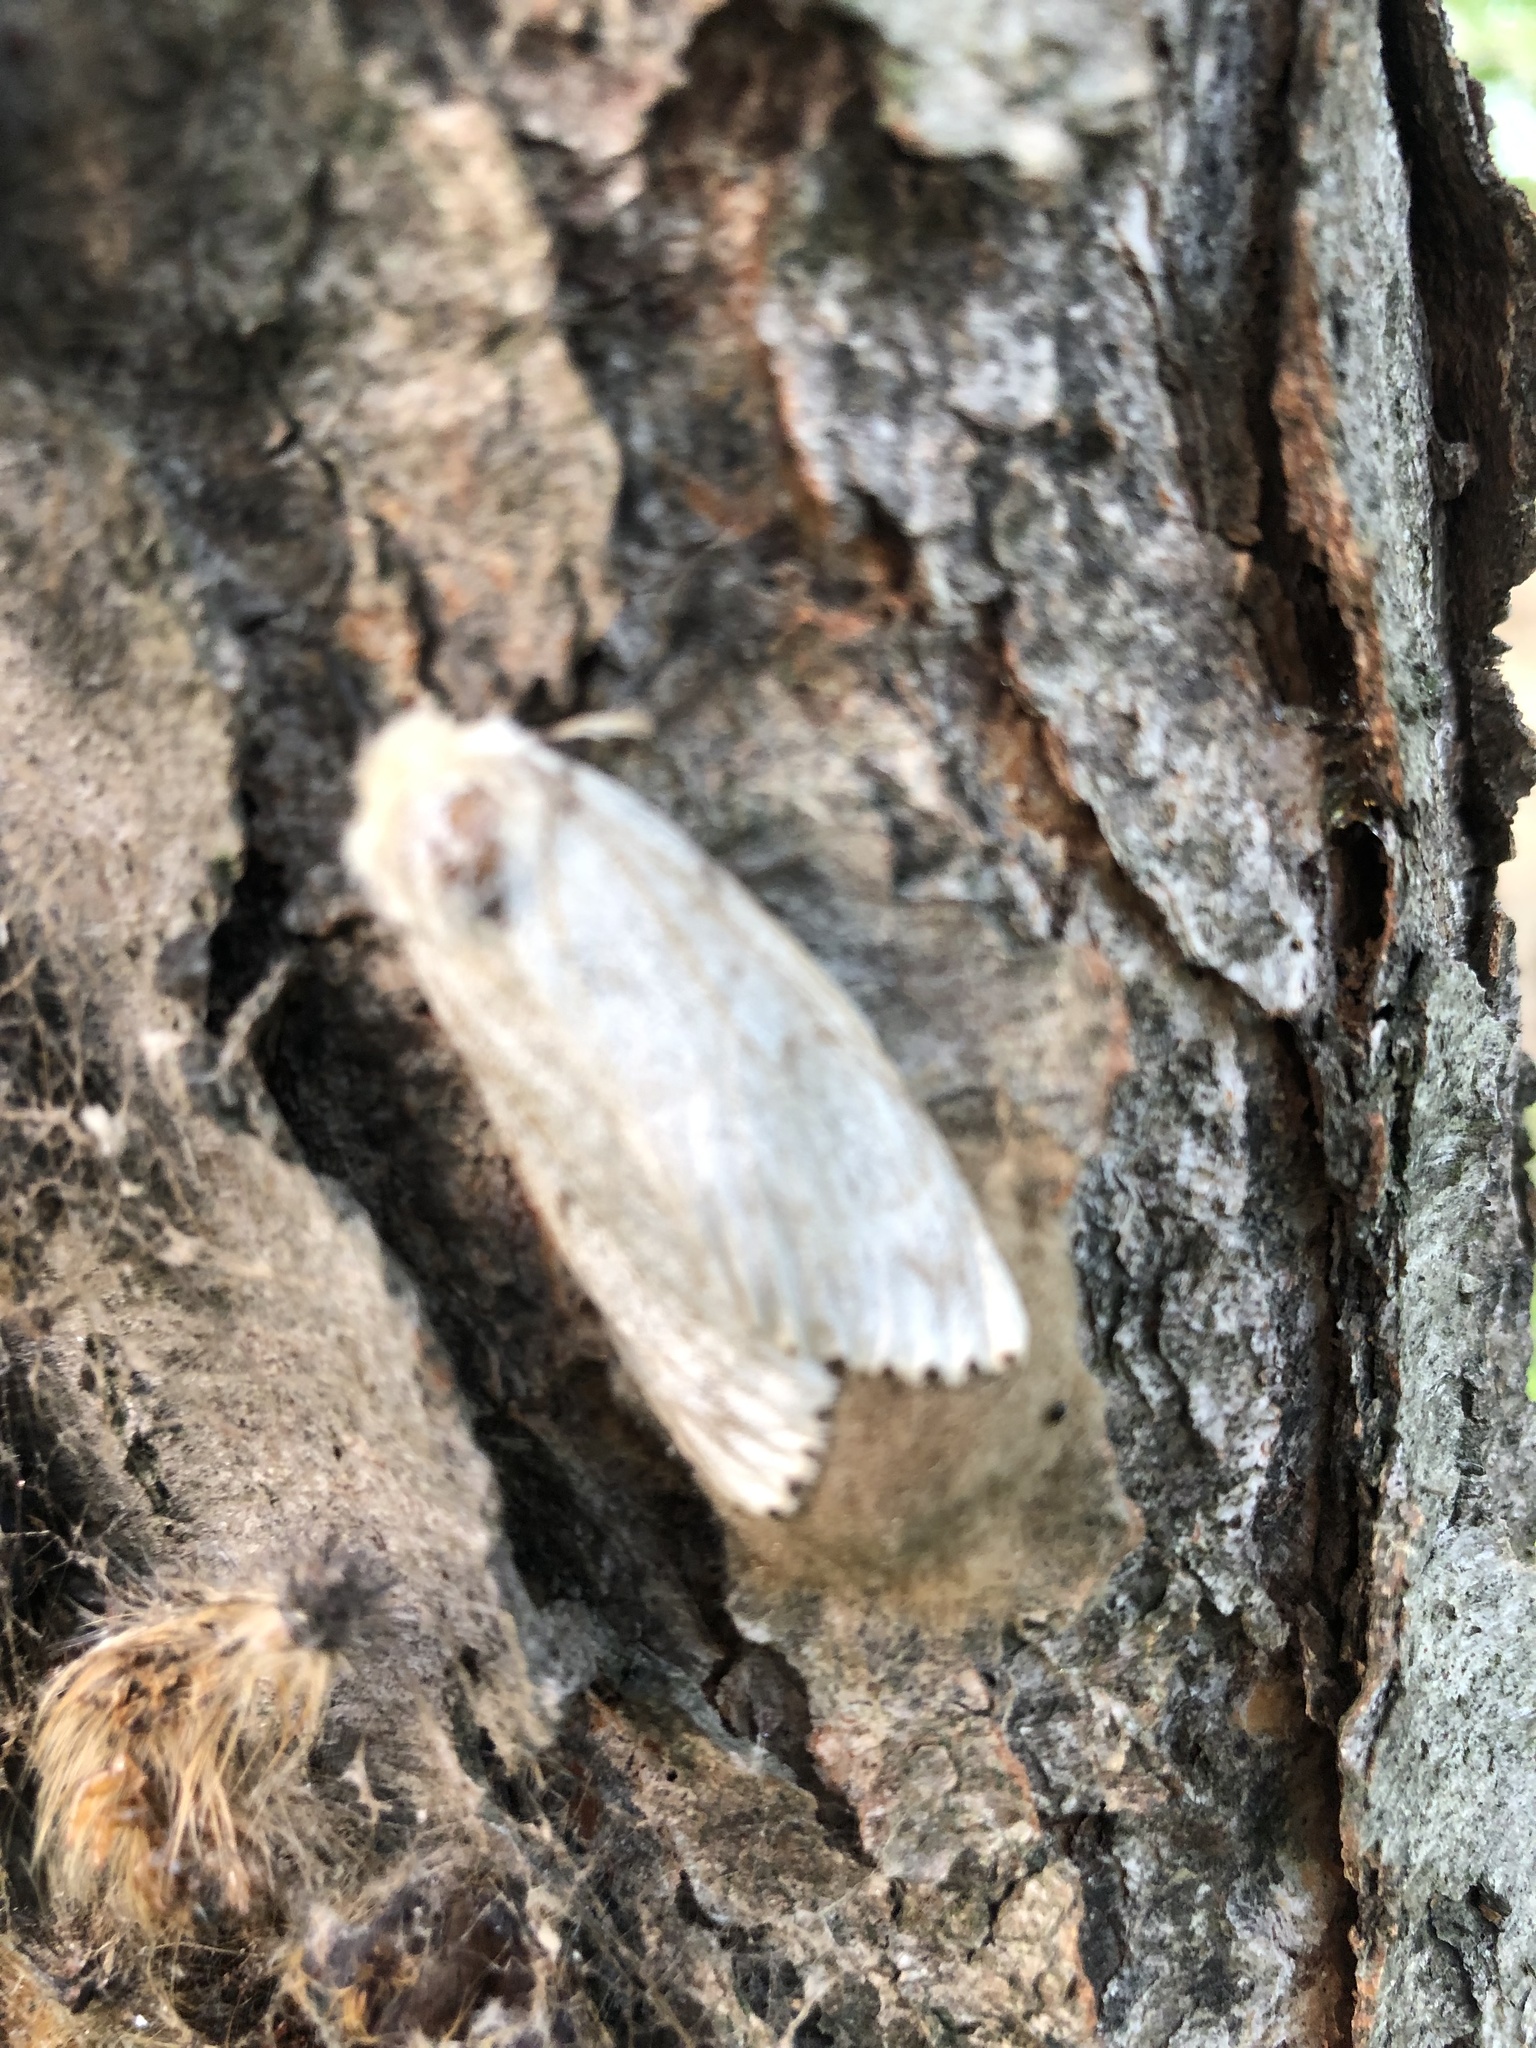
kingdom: Animalia
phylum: Arthropoda
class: Insecta
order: Lepidoptera
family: Erebidae
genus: Lymantria
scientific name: Lymantria dispar
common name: Gypsy moth
